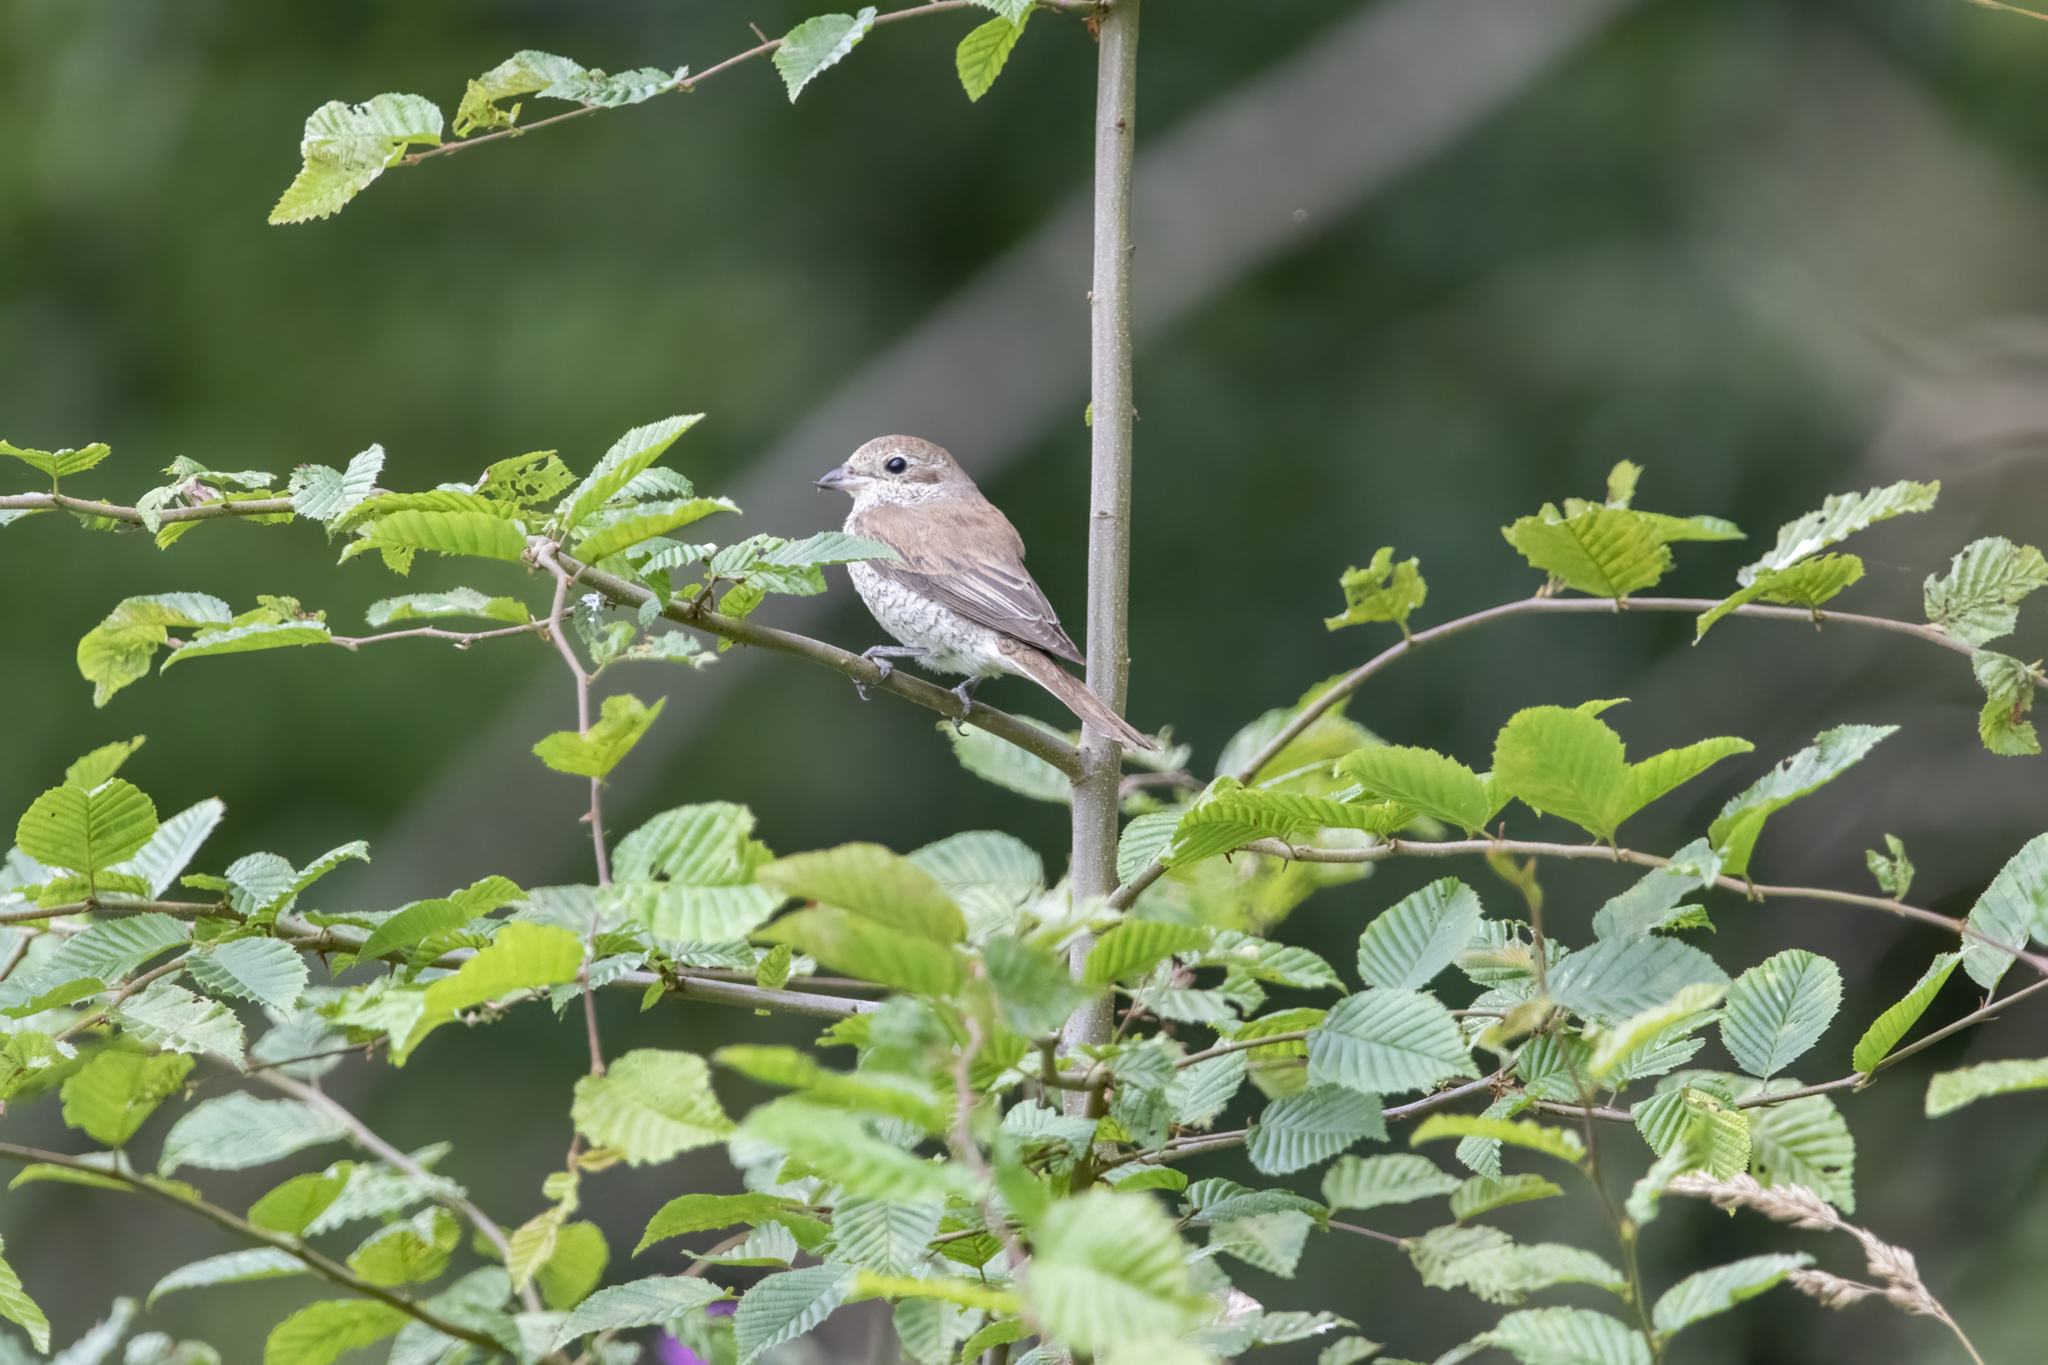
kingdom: Animalia
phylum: Chordata
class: Aves
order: Passeriformes
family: Laniidae
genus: Lanius
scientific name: Lanius collurio
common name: Red-backed shrike
